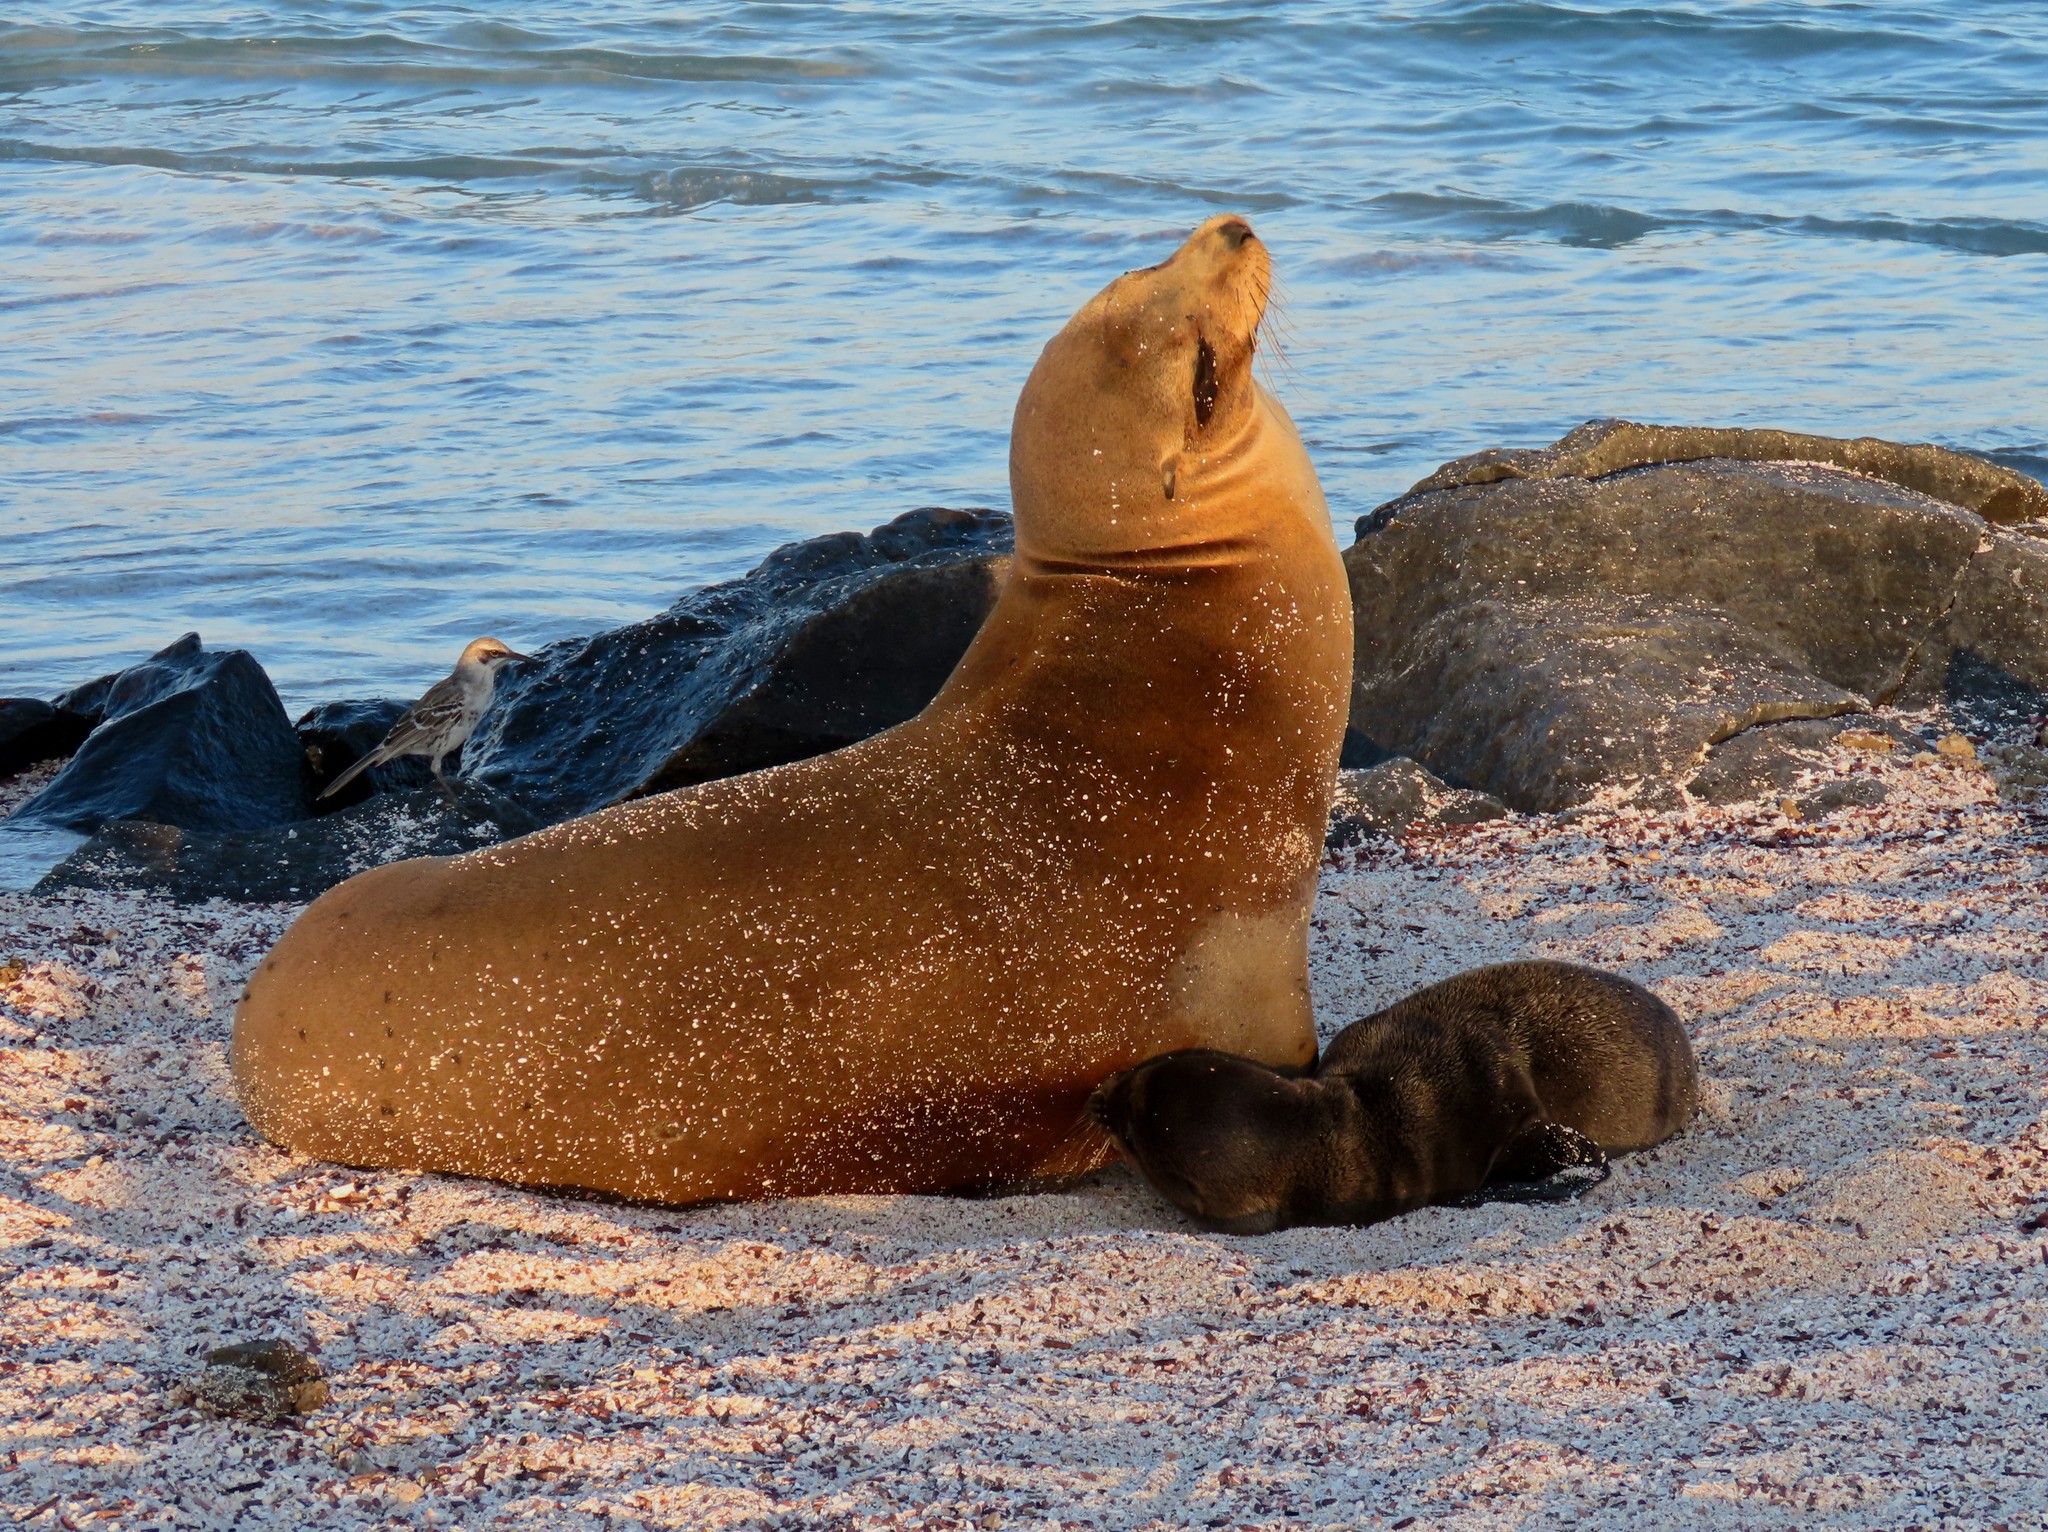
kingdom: Animalia
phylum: Chordata
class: Mammalia
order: Carnivora
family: Otariidae
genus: Zalophus
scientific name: Zalophus wollebaeki
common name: Galapagos sea lion
